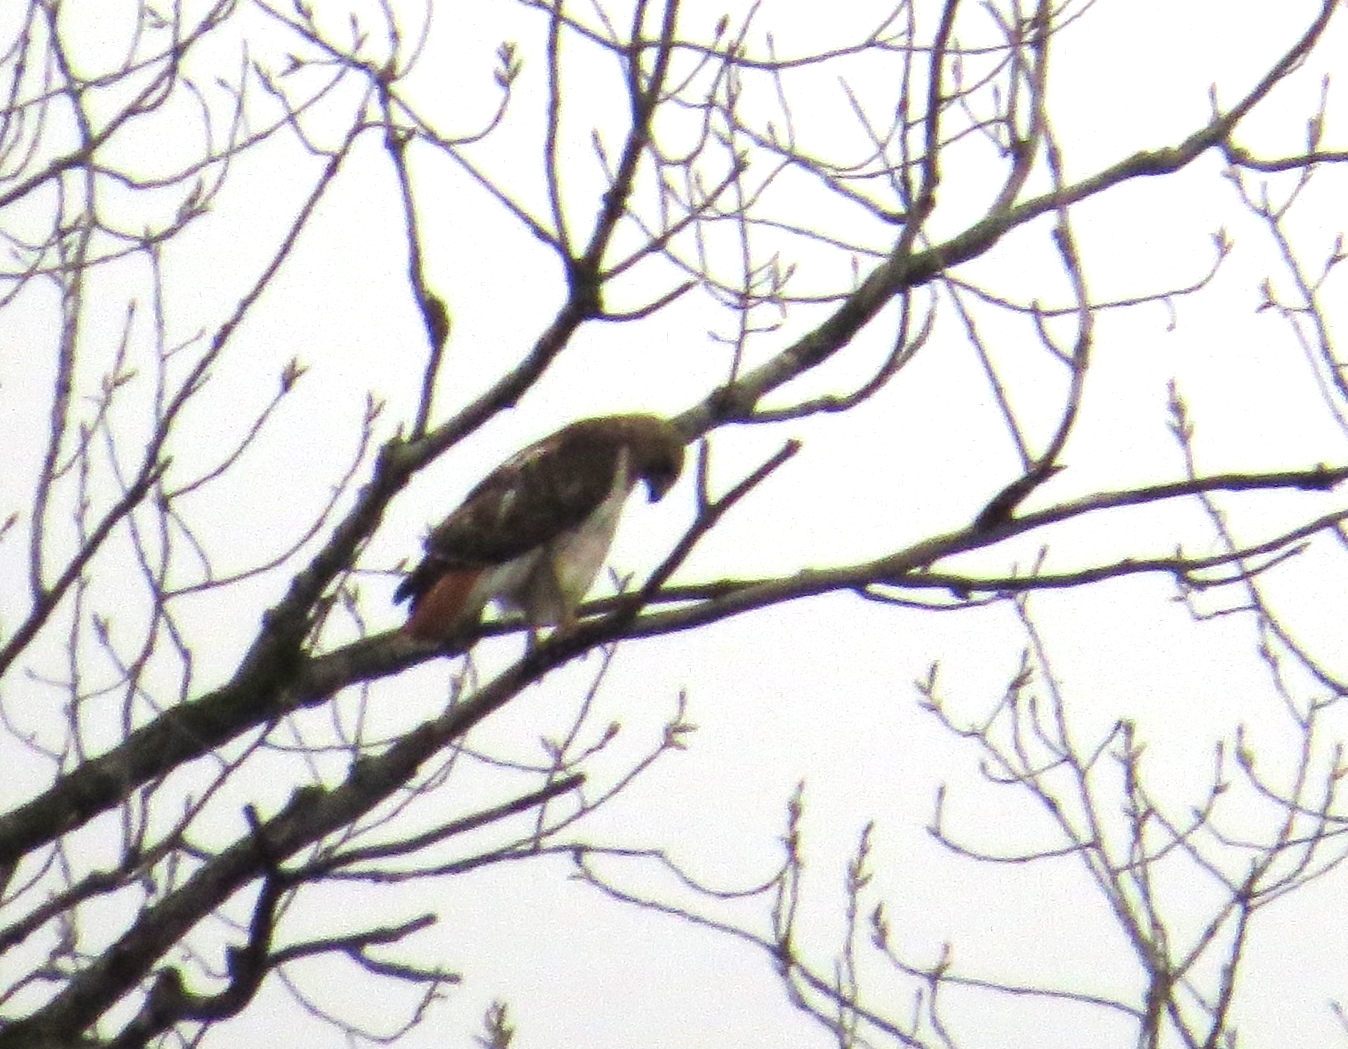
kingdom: Animalia
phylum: Chordata
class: Aves
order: Accipitriformes
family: Accipitridae
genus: Buteo
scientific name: Buteo jamaicensis
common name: Red-tailed hawk
